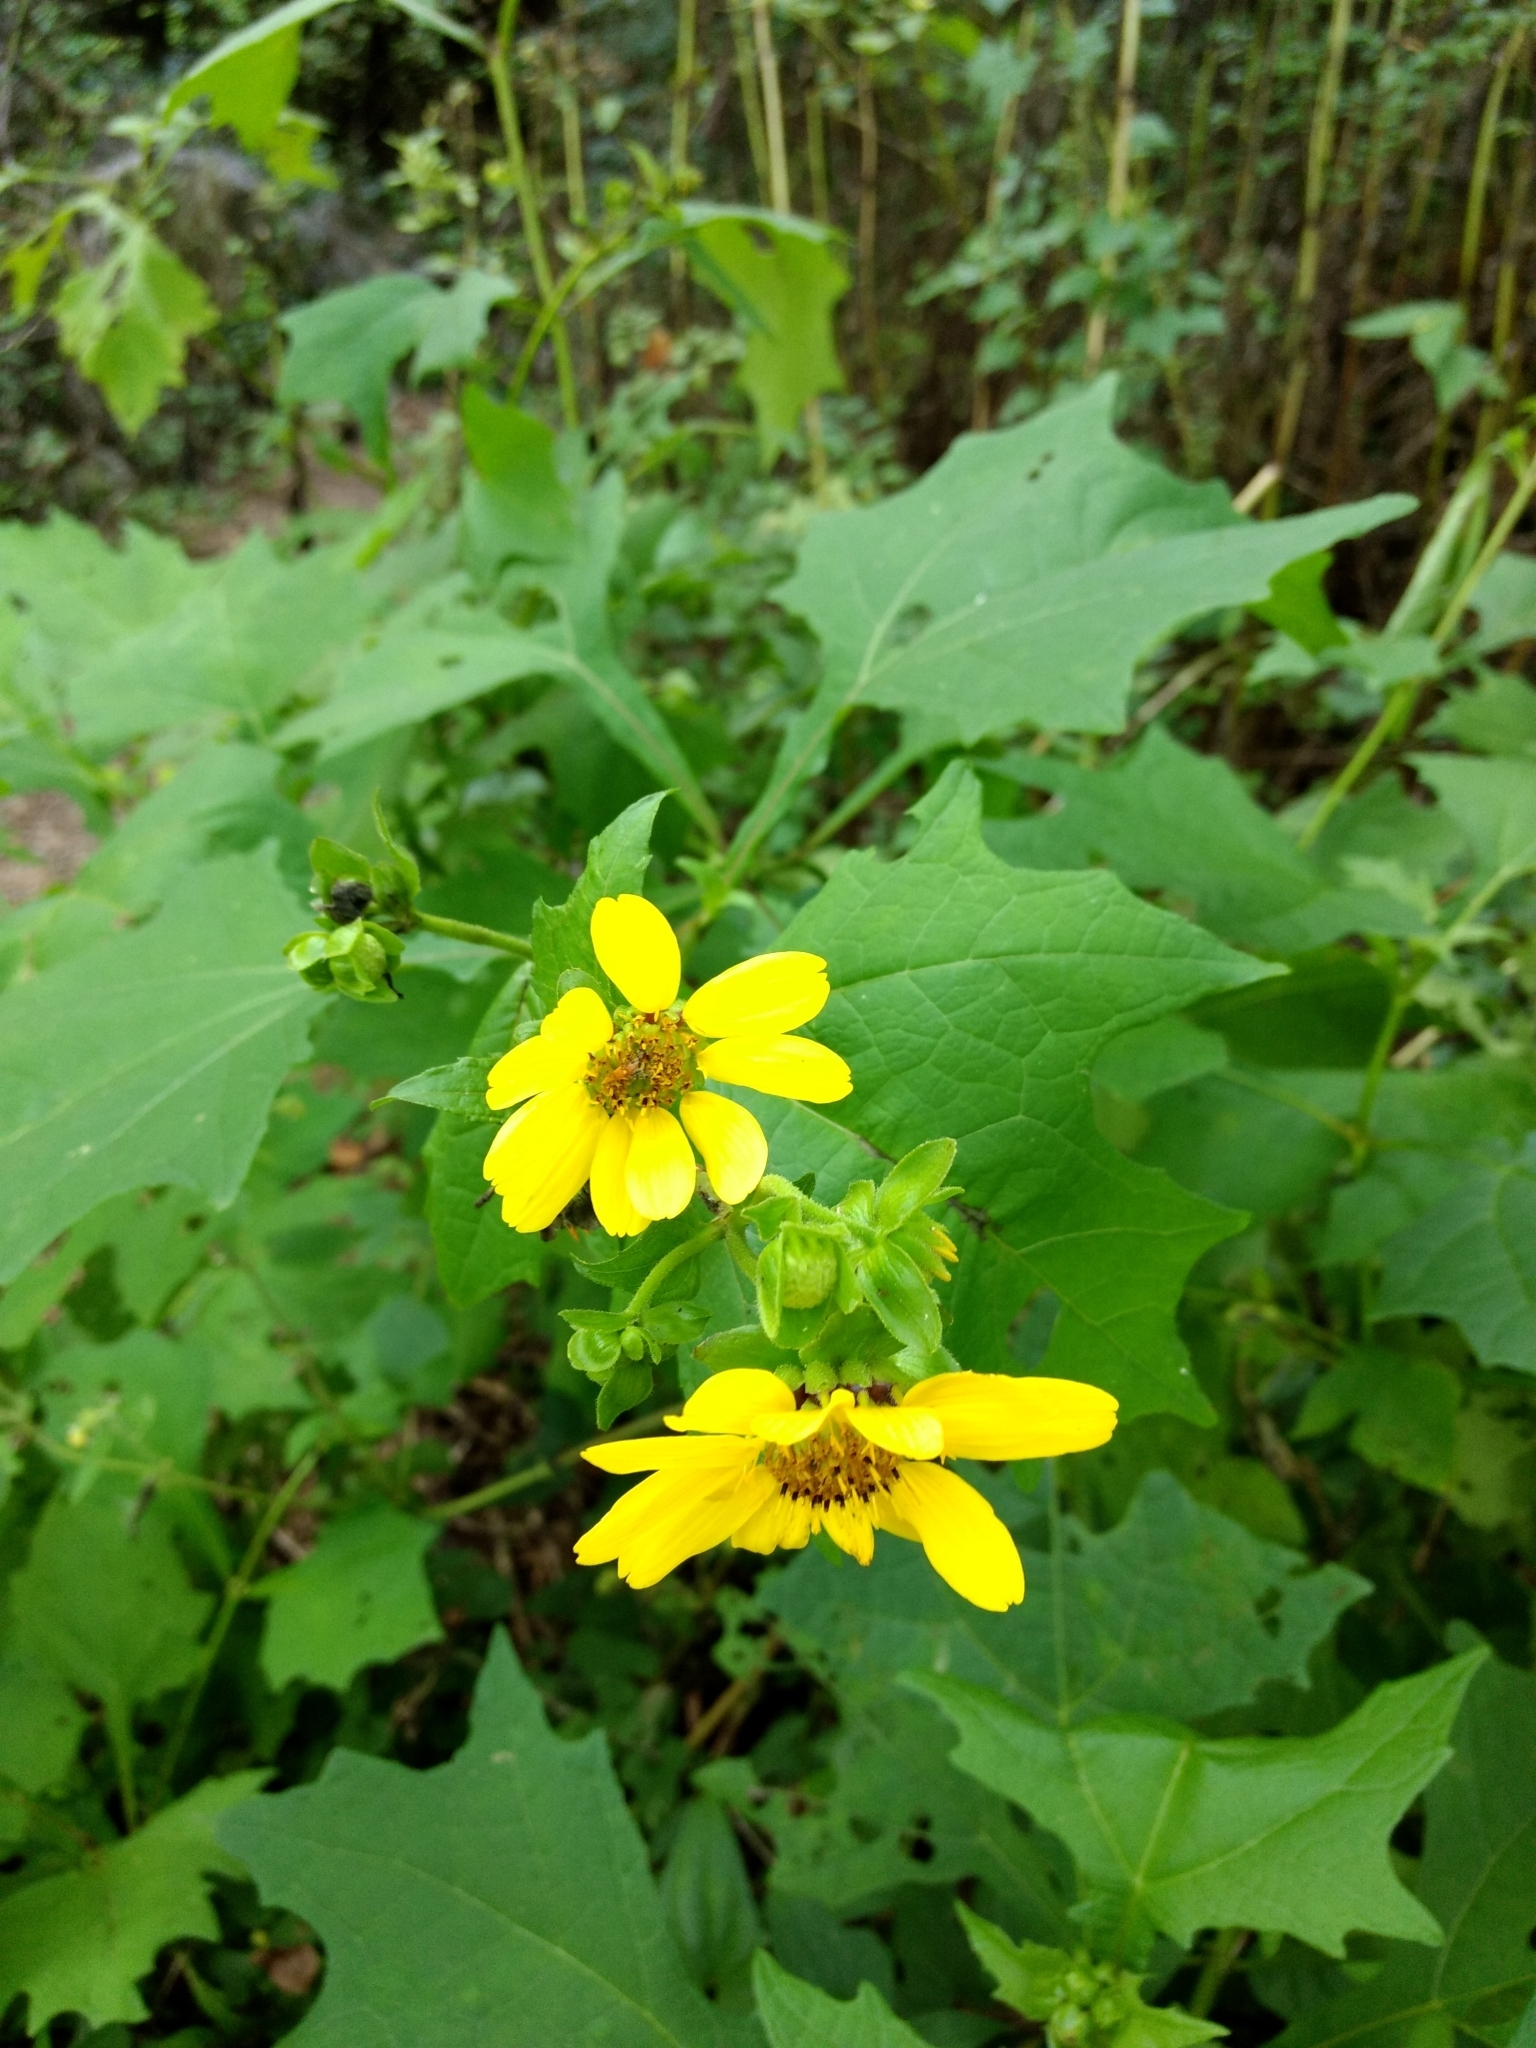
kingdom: Plantae
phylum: Tracheophyta
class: Magnoliopsida
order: Asterales
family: Asteraceae
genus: Smallanthus
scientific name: Smallanthus uvedalia
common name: Bear's-foot
